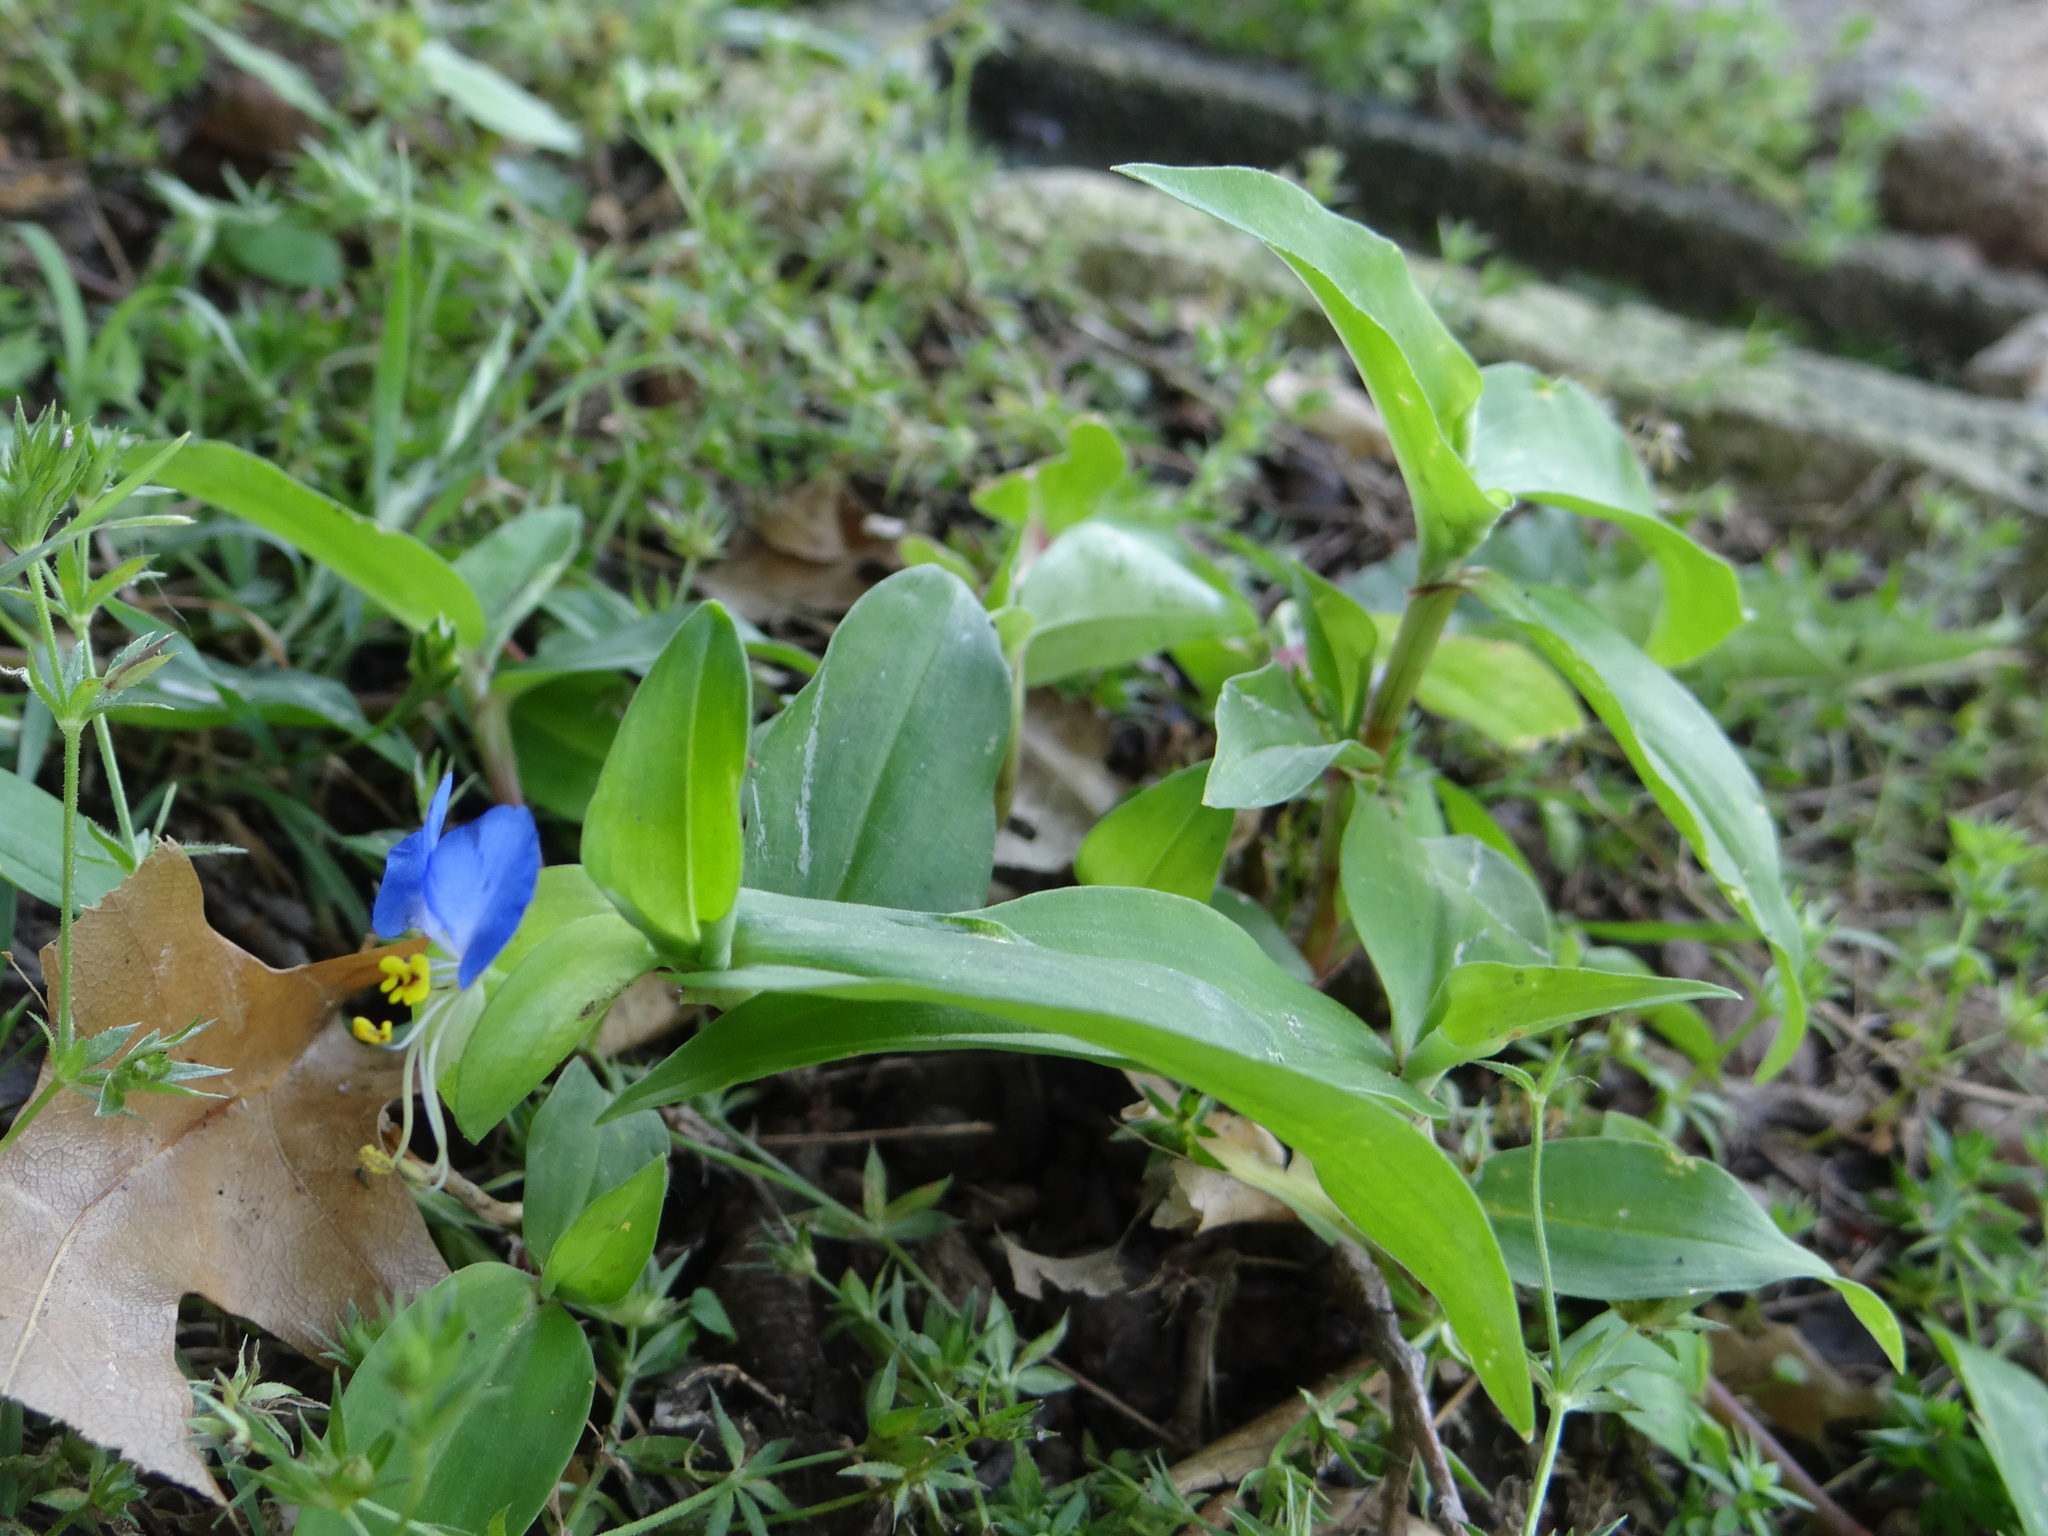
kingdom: Plantae
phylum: Tracheophyta
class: Liliopsida
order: Commelinales
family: Commelinaceae
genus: Commelina
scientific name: Commelina communis
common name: Asiatic dayflower
